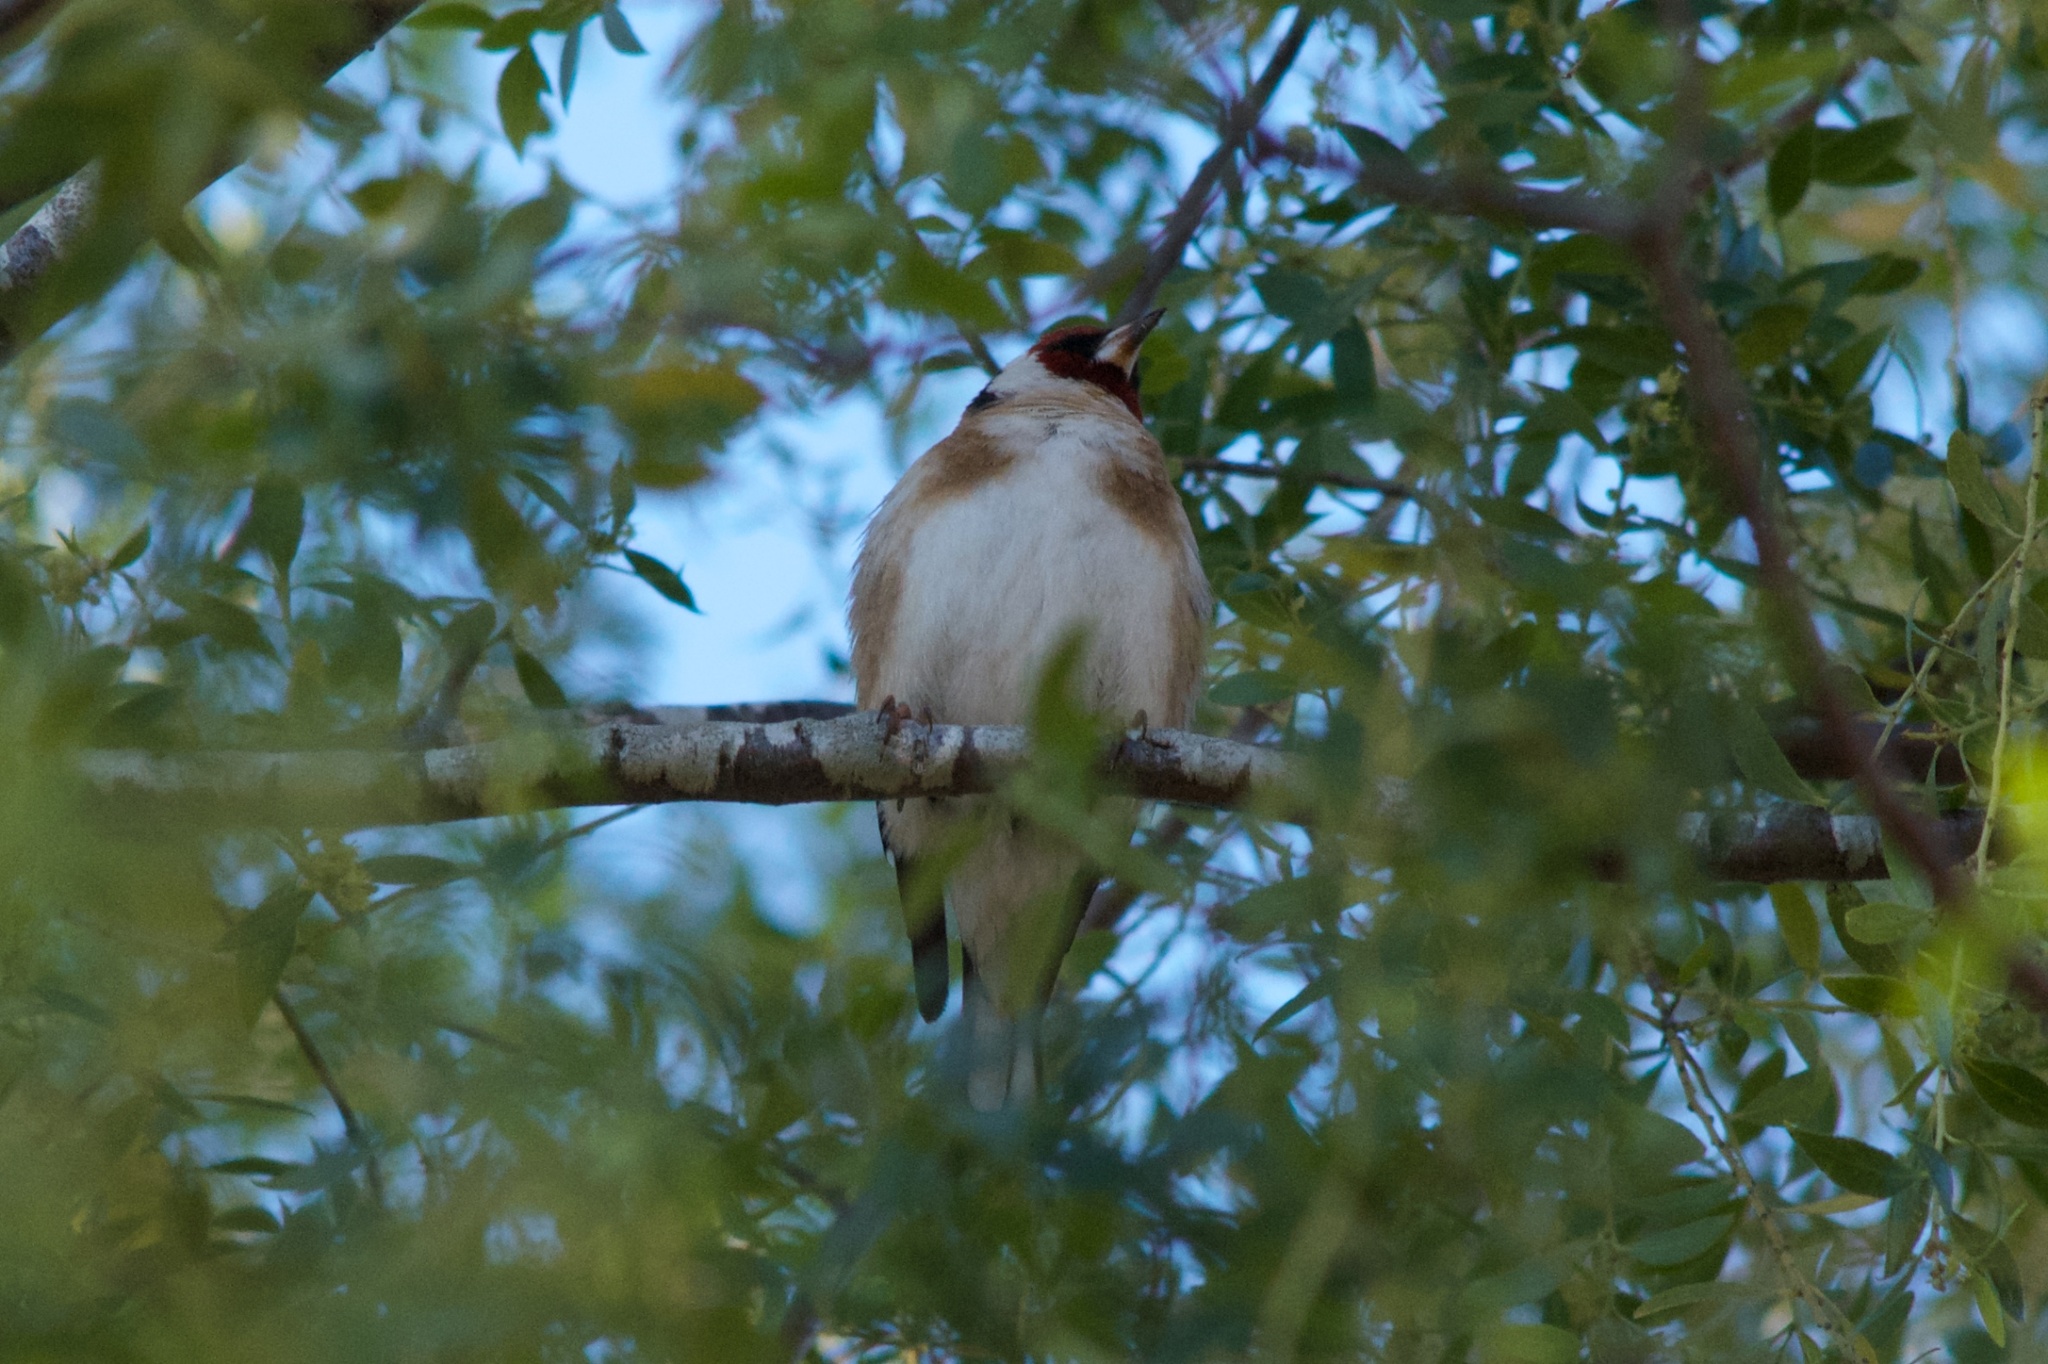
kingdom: Animalia
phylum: Chordata
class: Aves
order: Passeriformes
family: Fringillidae
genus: Carduelis
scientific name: Carduelis carduelis
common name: European goldfinch
